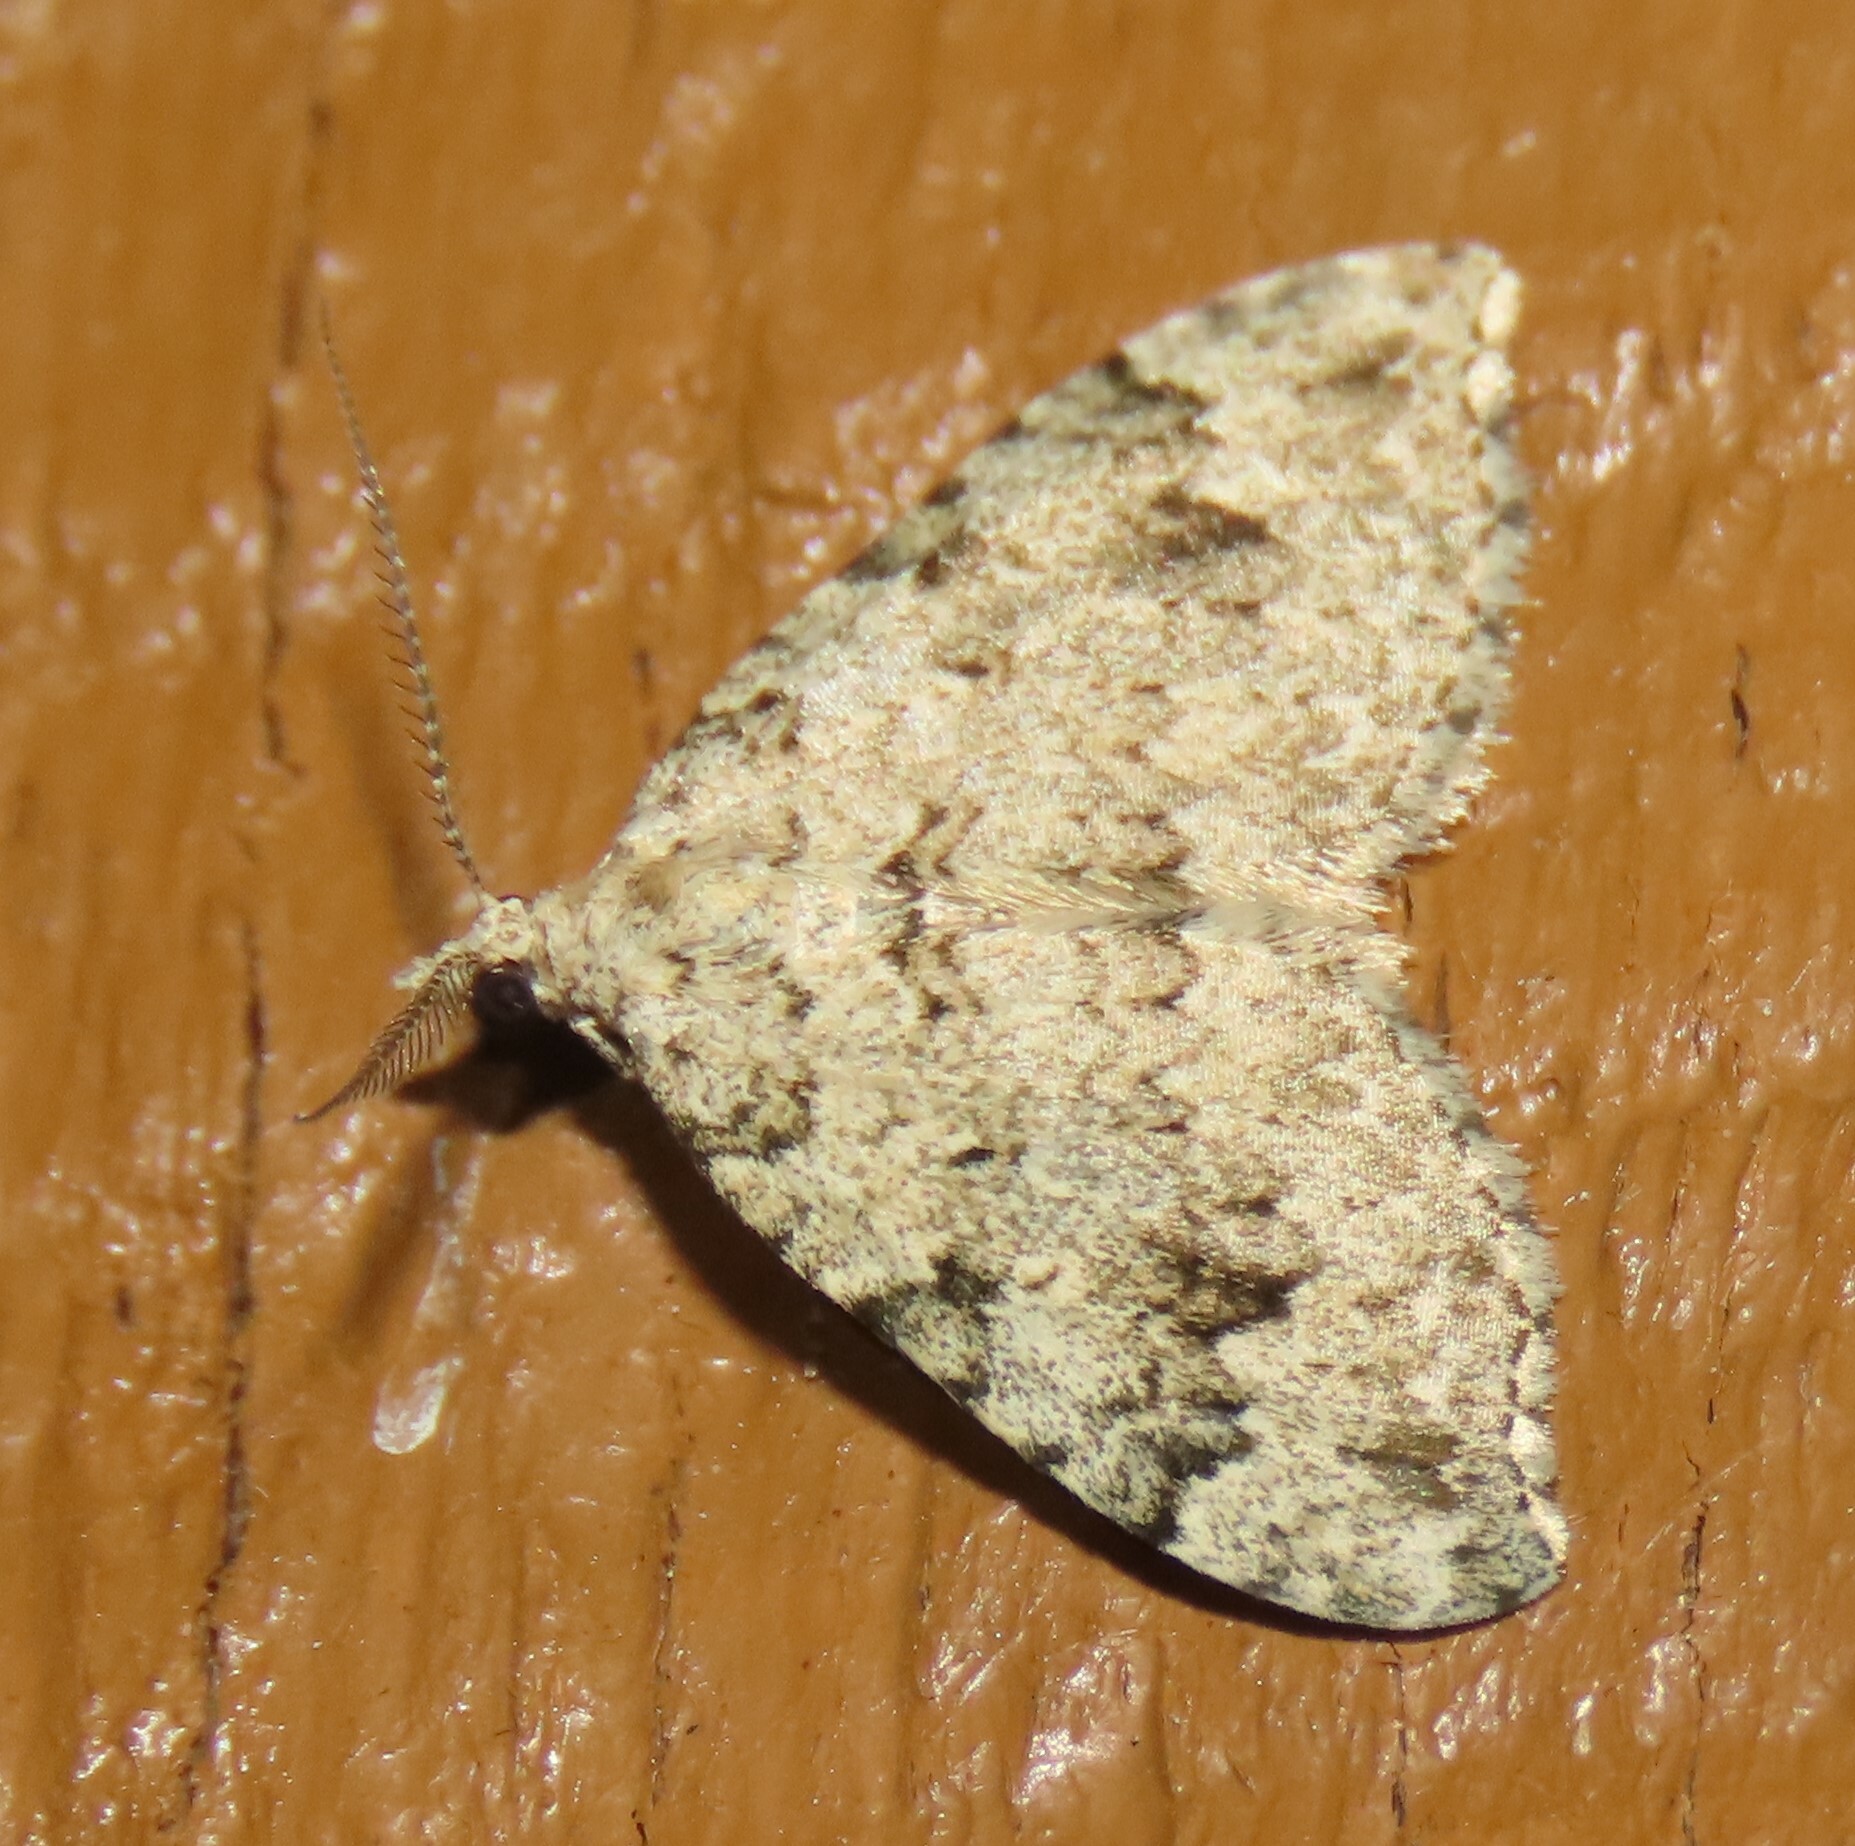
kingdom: Animalia
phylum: Arthropoda
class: Insecta
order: Lepidoptera
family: Geometridae
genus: Helastia
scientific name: Helastia cinerearia
